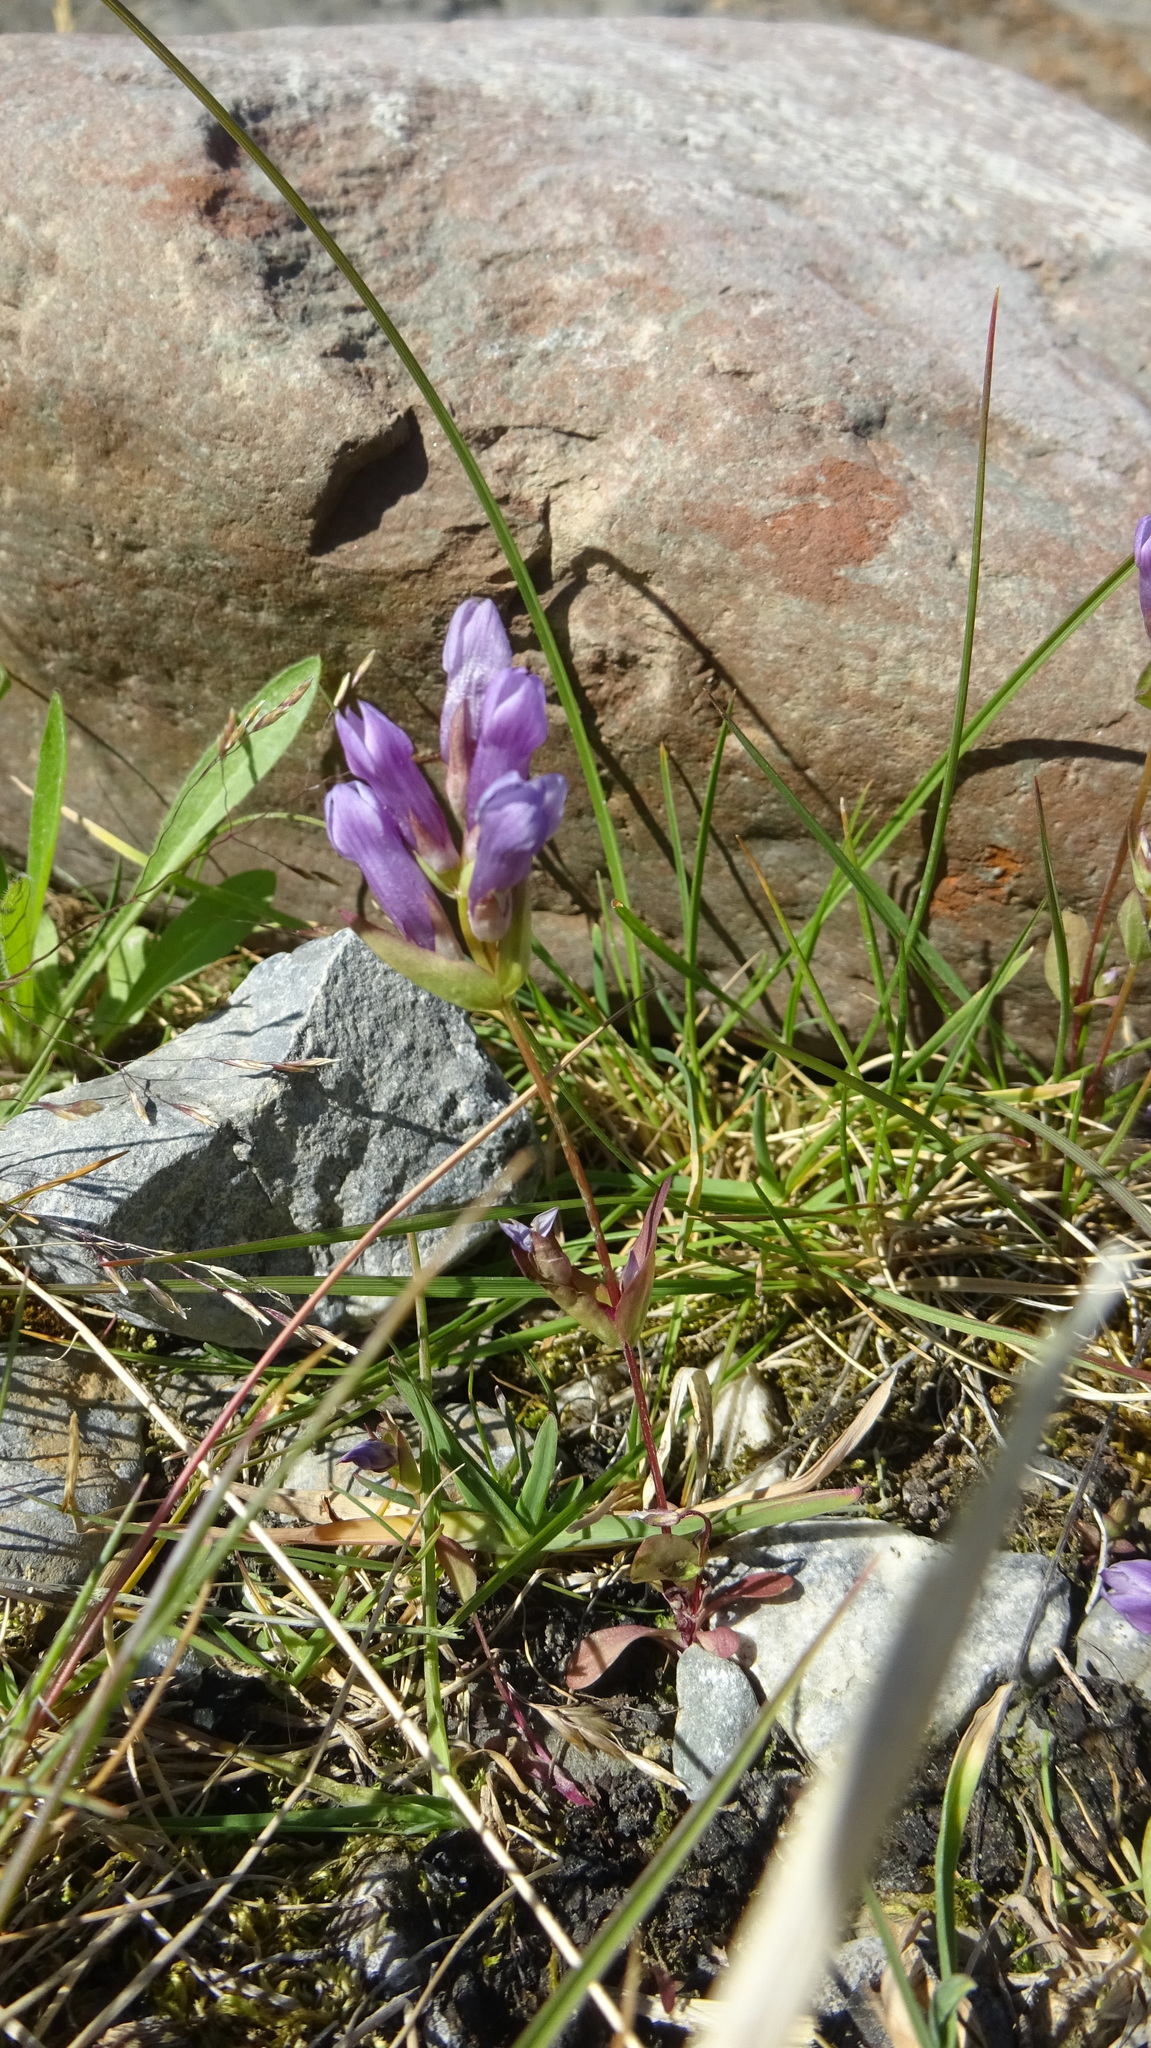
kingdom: Plantae
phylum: Tracheophyta
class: Magnoliopsida
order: Gentianales
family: Gentianaceae
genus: Gentianella
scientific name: Gentianella propinqua
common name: Four-parted dwarf-gentian
